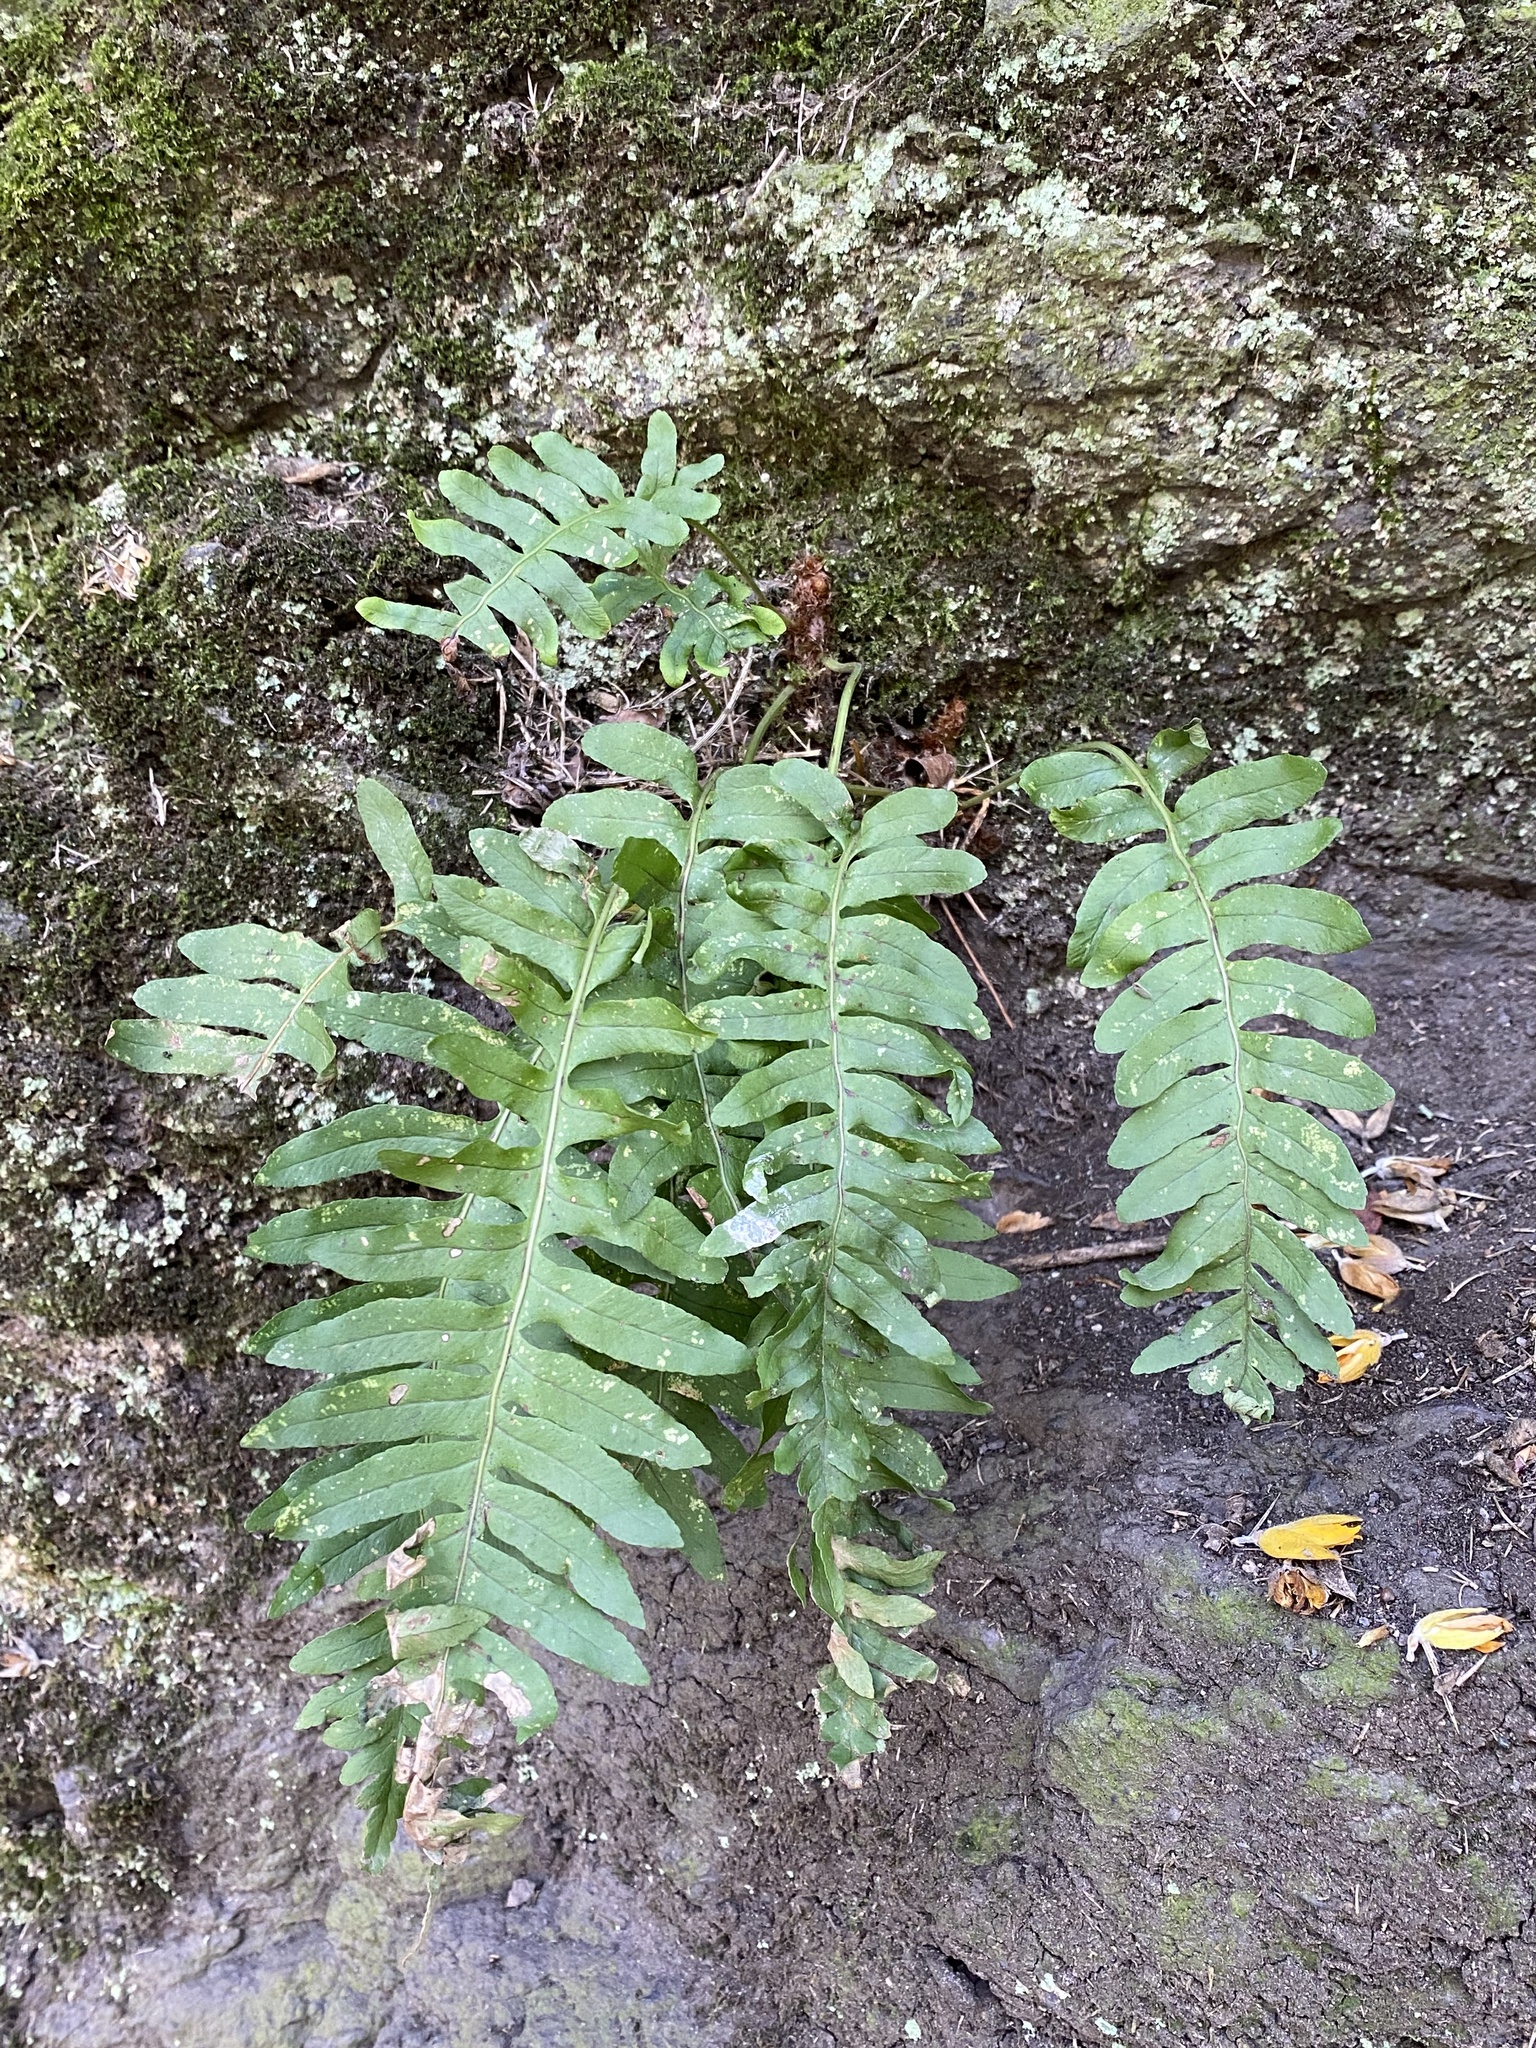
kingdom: Plantae
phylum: Tracheophyta
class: Polypodiopsida
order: Polypodiales
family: Polypodiaceae
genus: Polypodium
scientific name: Polypodium vulgare
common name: Common polypody
